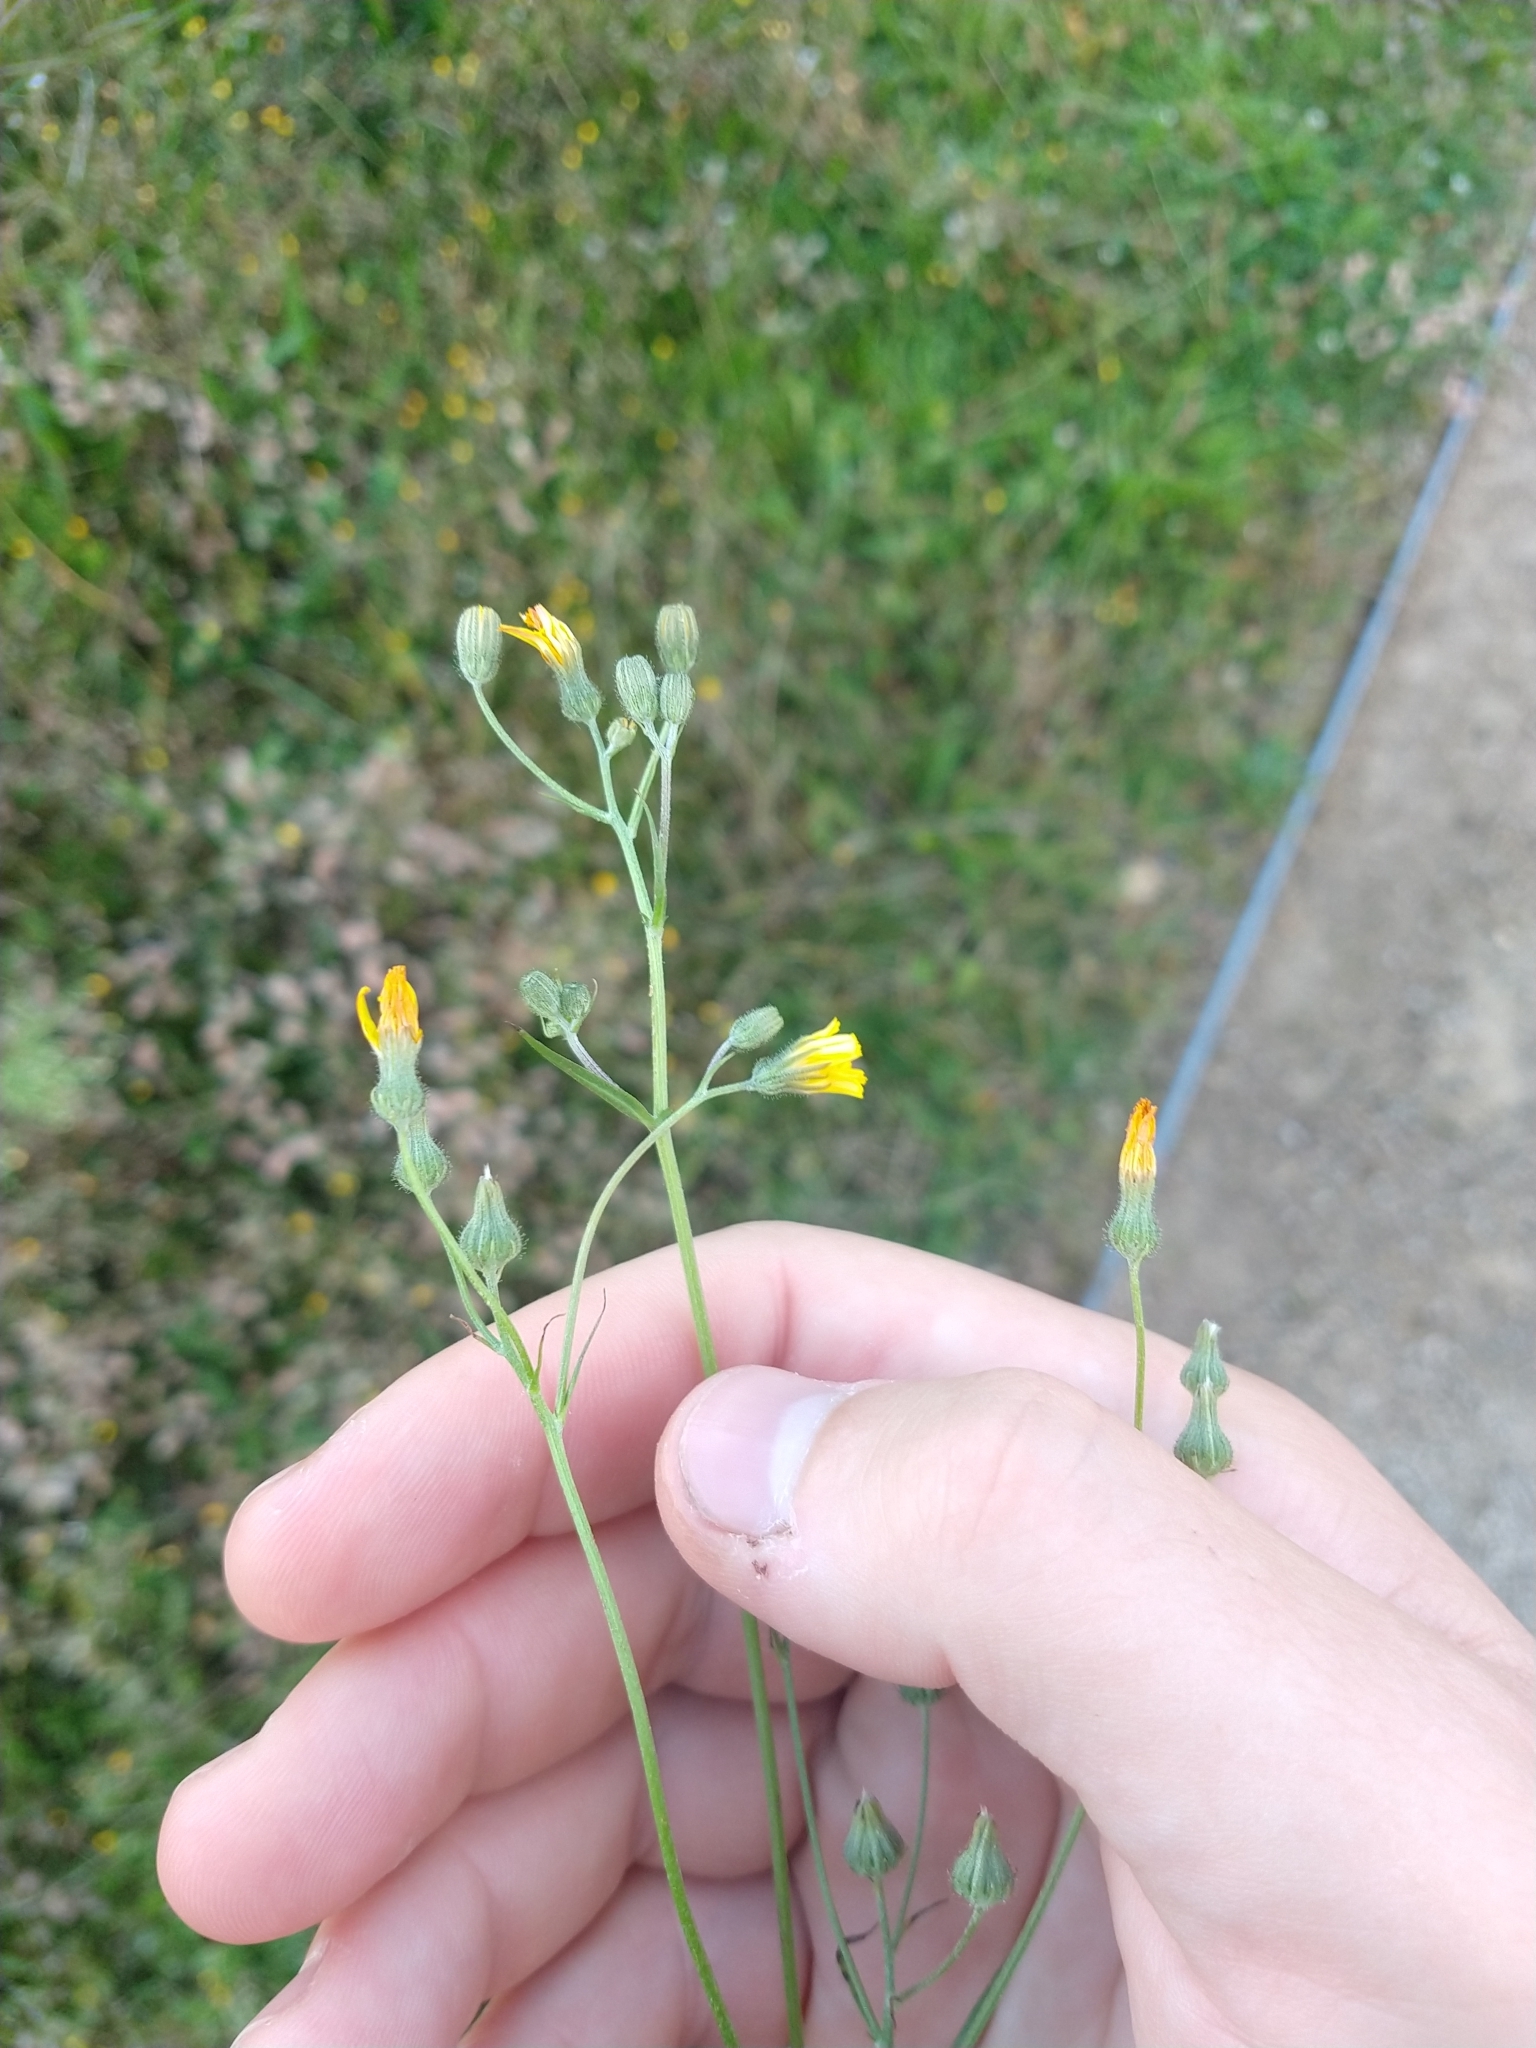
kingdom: Plantae
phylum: Tracheophyta
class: Magnoliopsida
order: Asterales
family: Asteraceae
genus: Crepis
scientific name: Crepis capillaris
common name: Smooth hawksbeard
